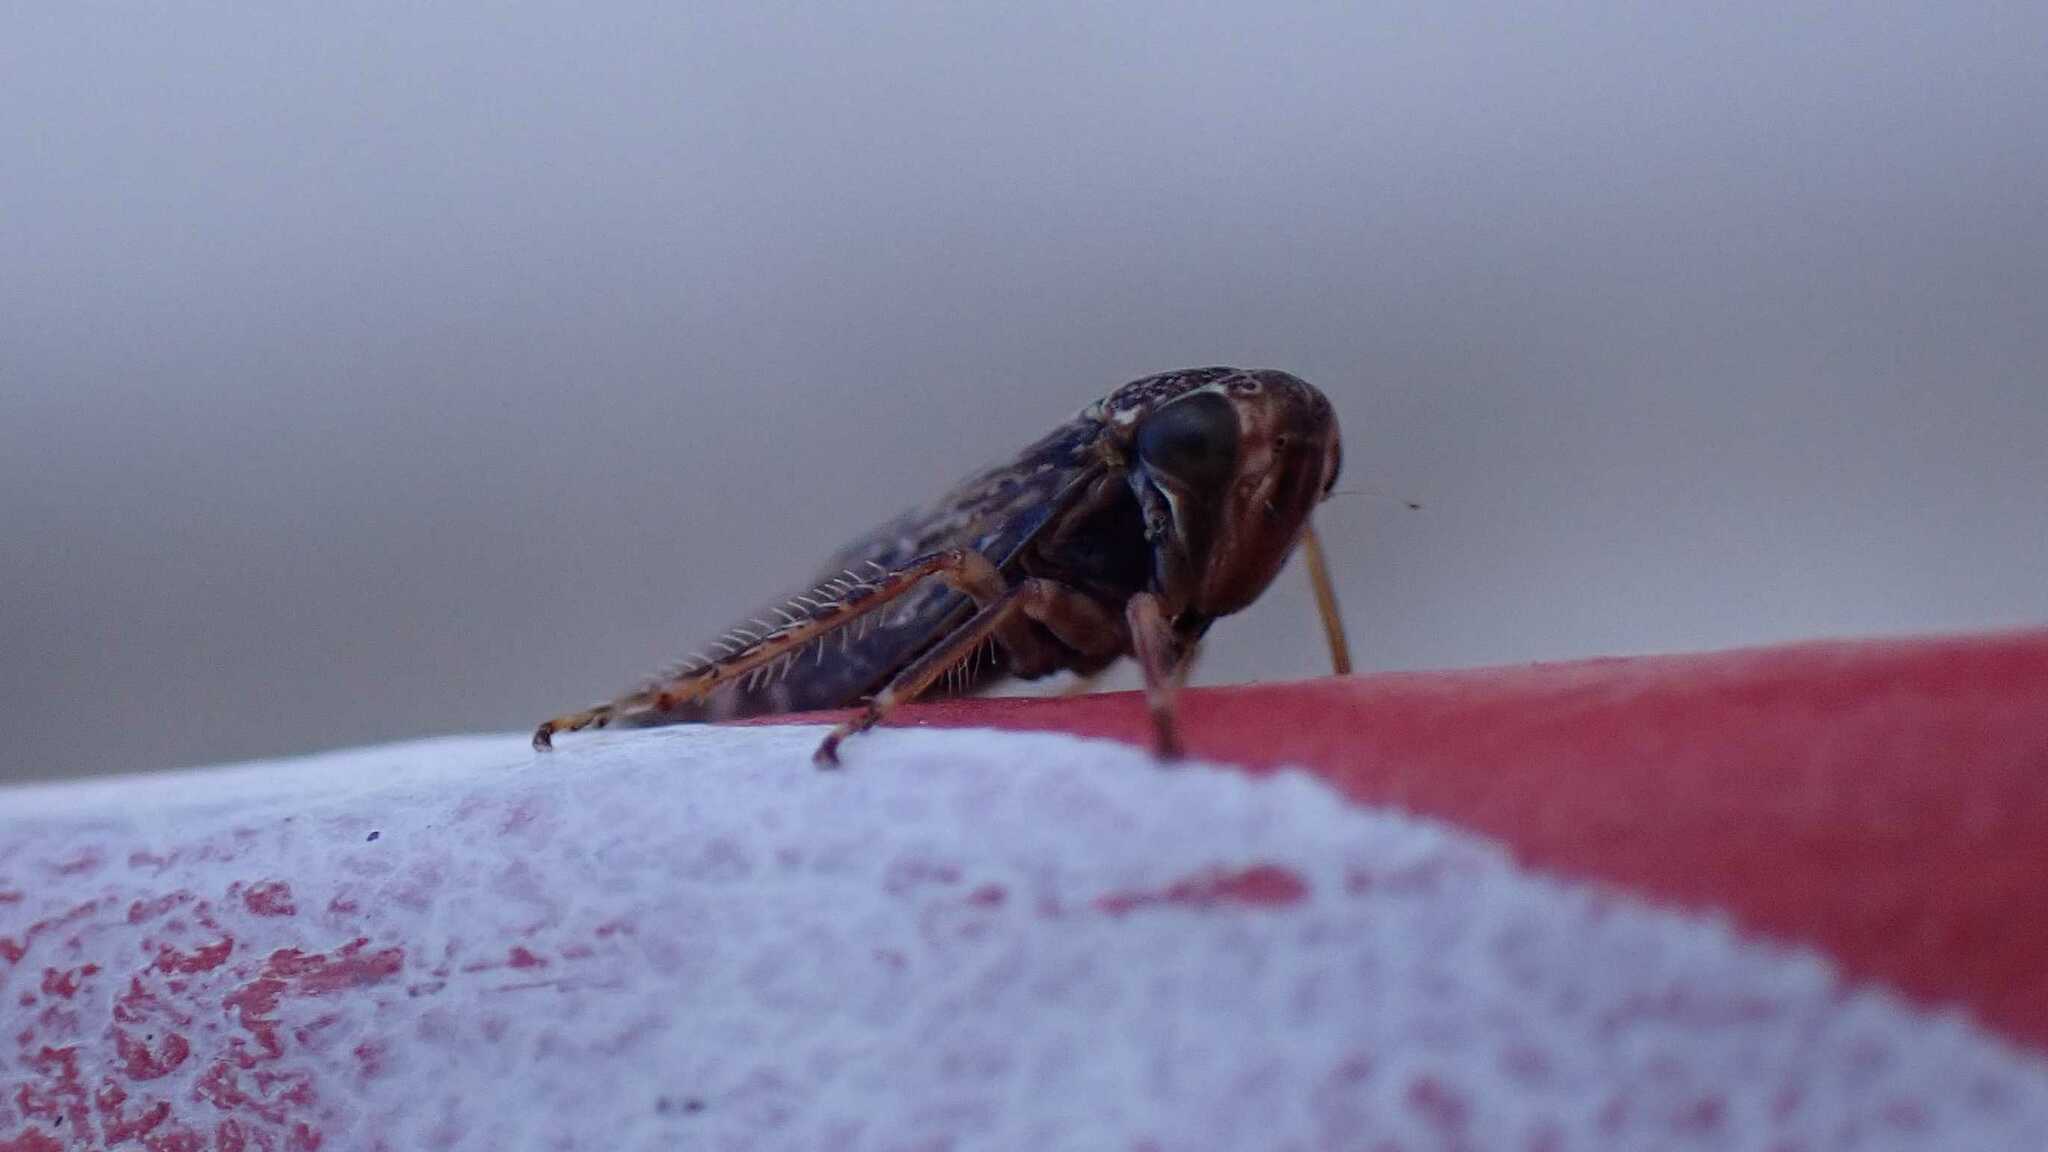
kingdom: Animalia
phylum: Arthropoda
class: Insecta
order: Hemiptera
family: Cicadellidae
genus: Acericerus
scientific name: Acericerus ribauti
